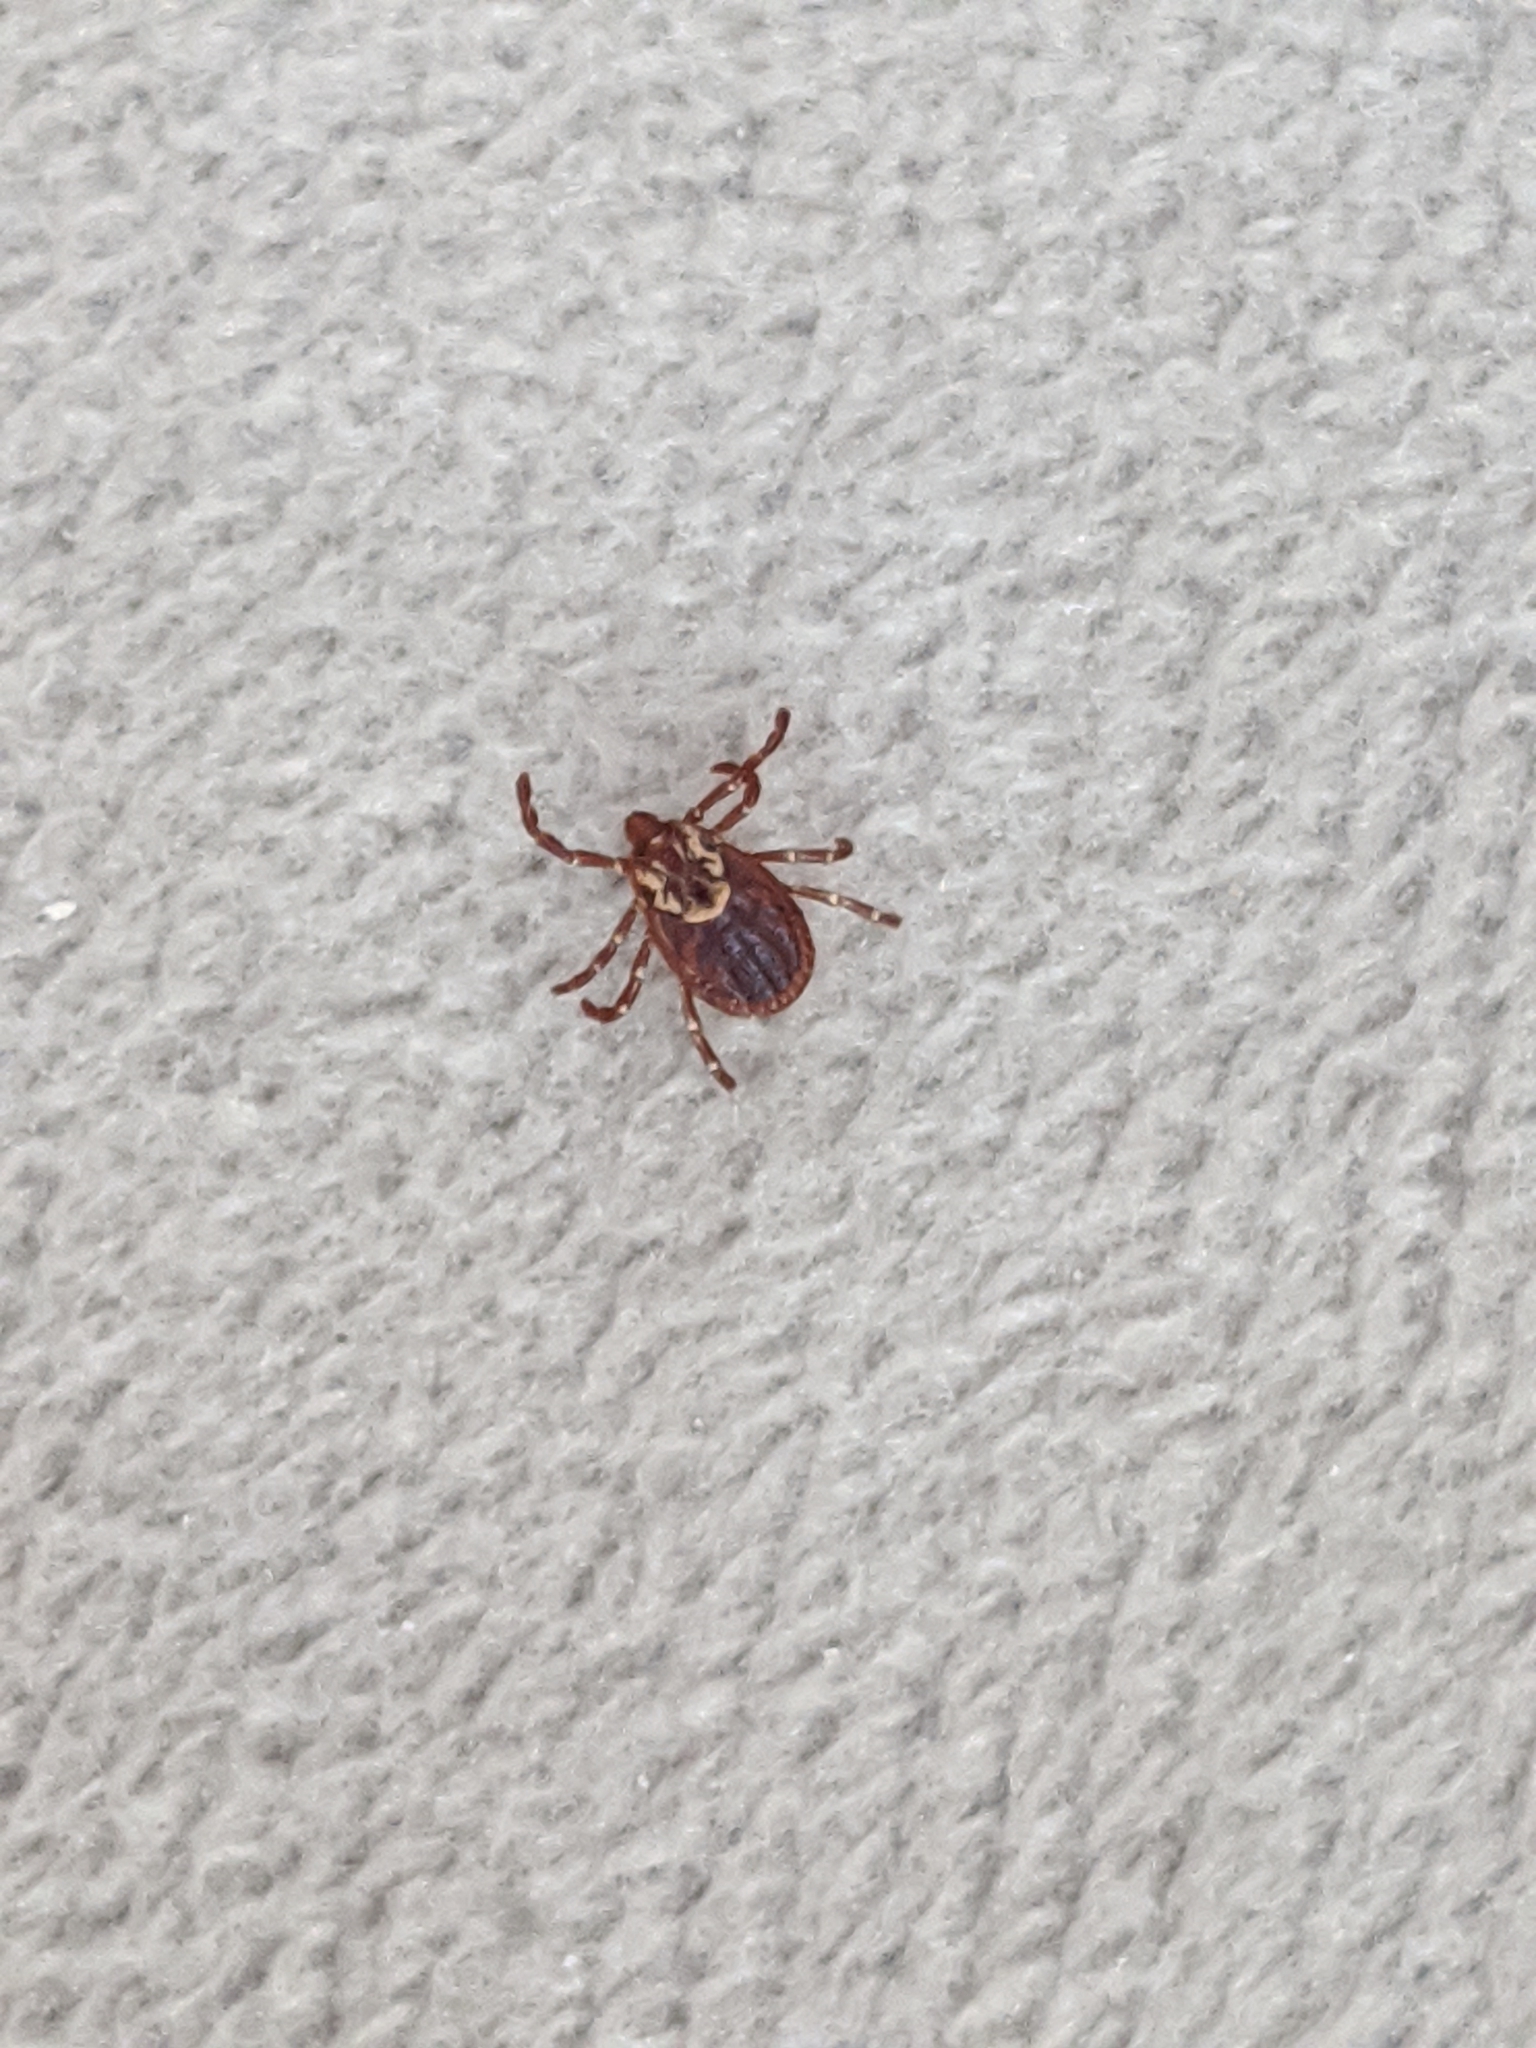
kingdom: Animalia
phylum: Arthropoda
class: Arachnida
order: Ixodida
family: Ixodidae
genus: Dermacentor
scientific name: Dermacentor variabilis
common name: American dog tick
